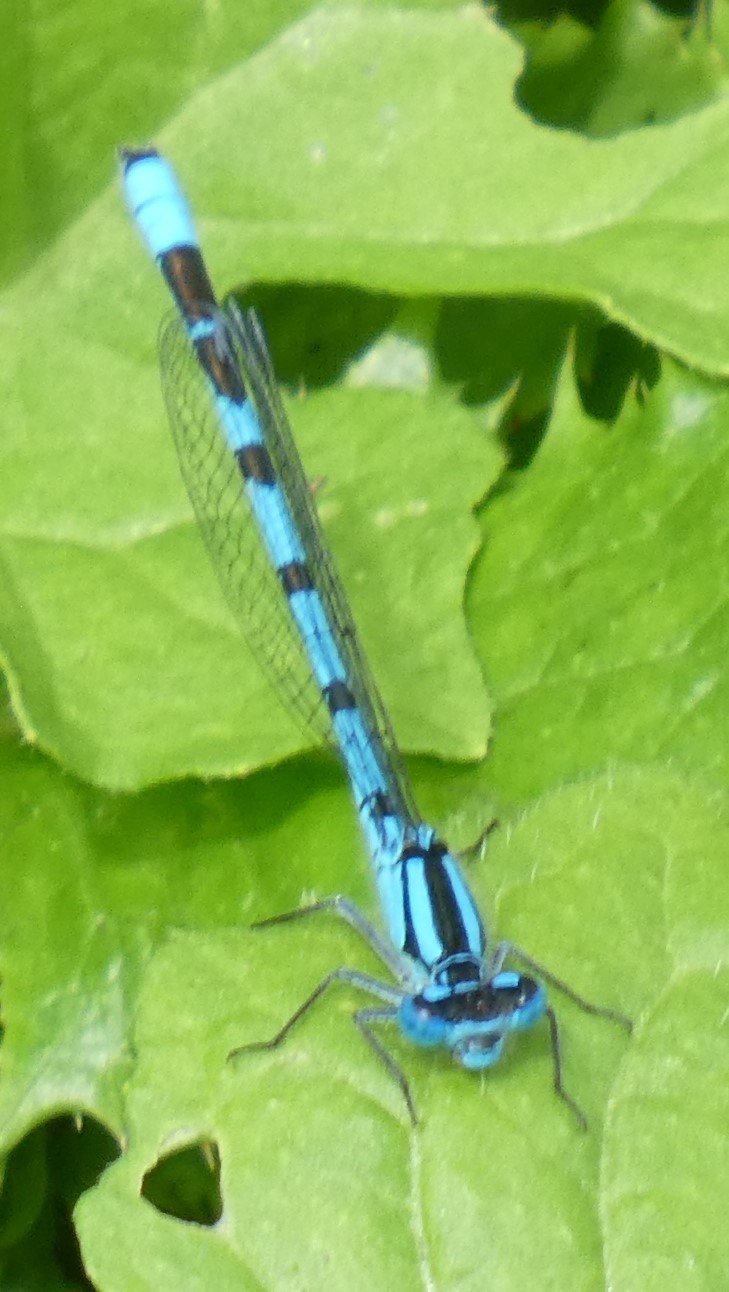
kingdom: Animalia
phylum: Arthropoda
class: Insecta
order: Odonata
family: Coenagrionidae
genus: Enallagma
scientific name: Enallagma cyathigerum
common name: Common blue damselfly
